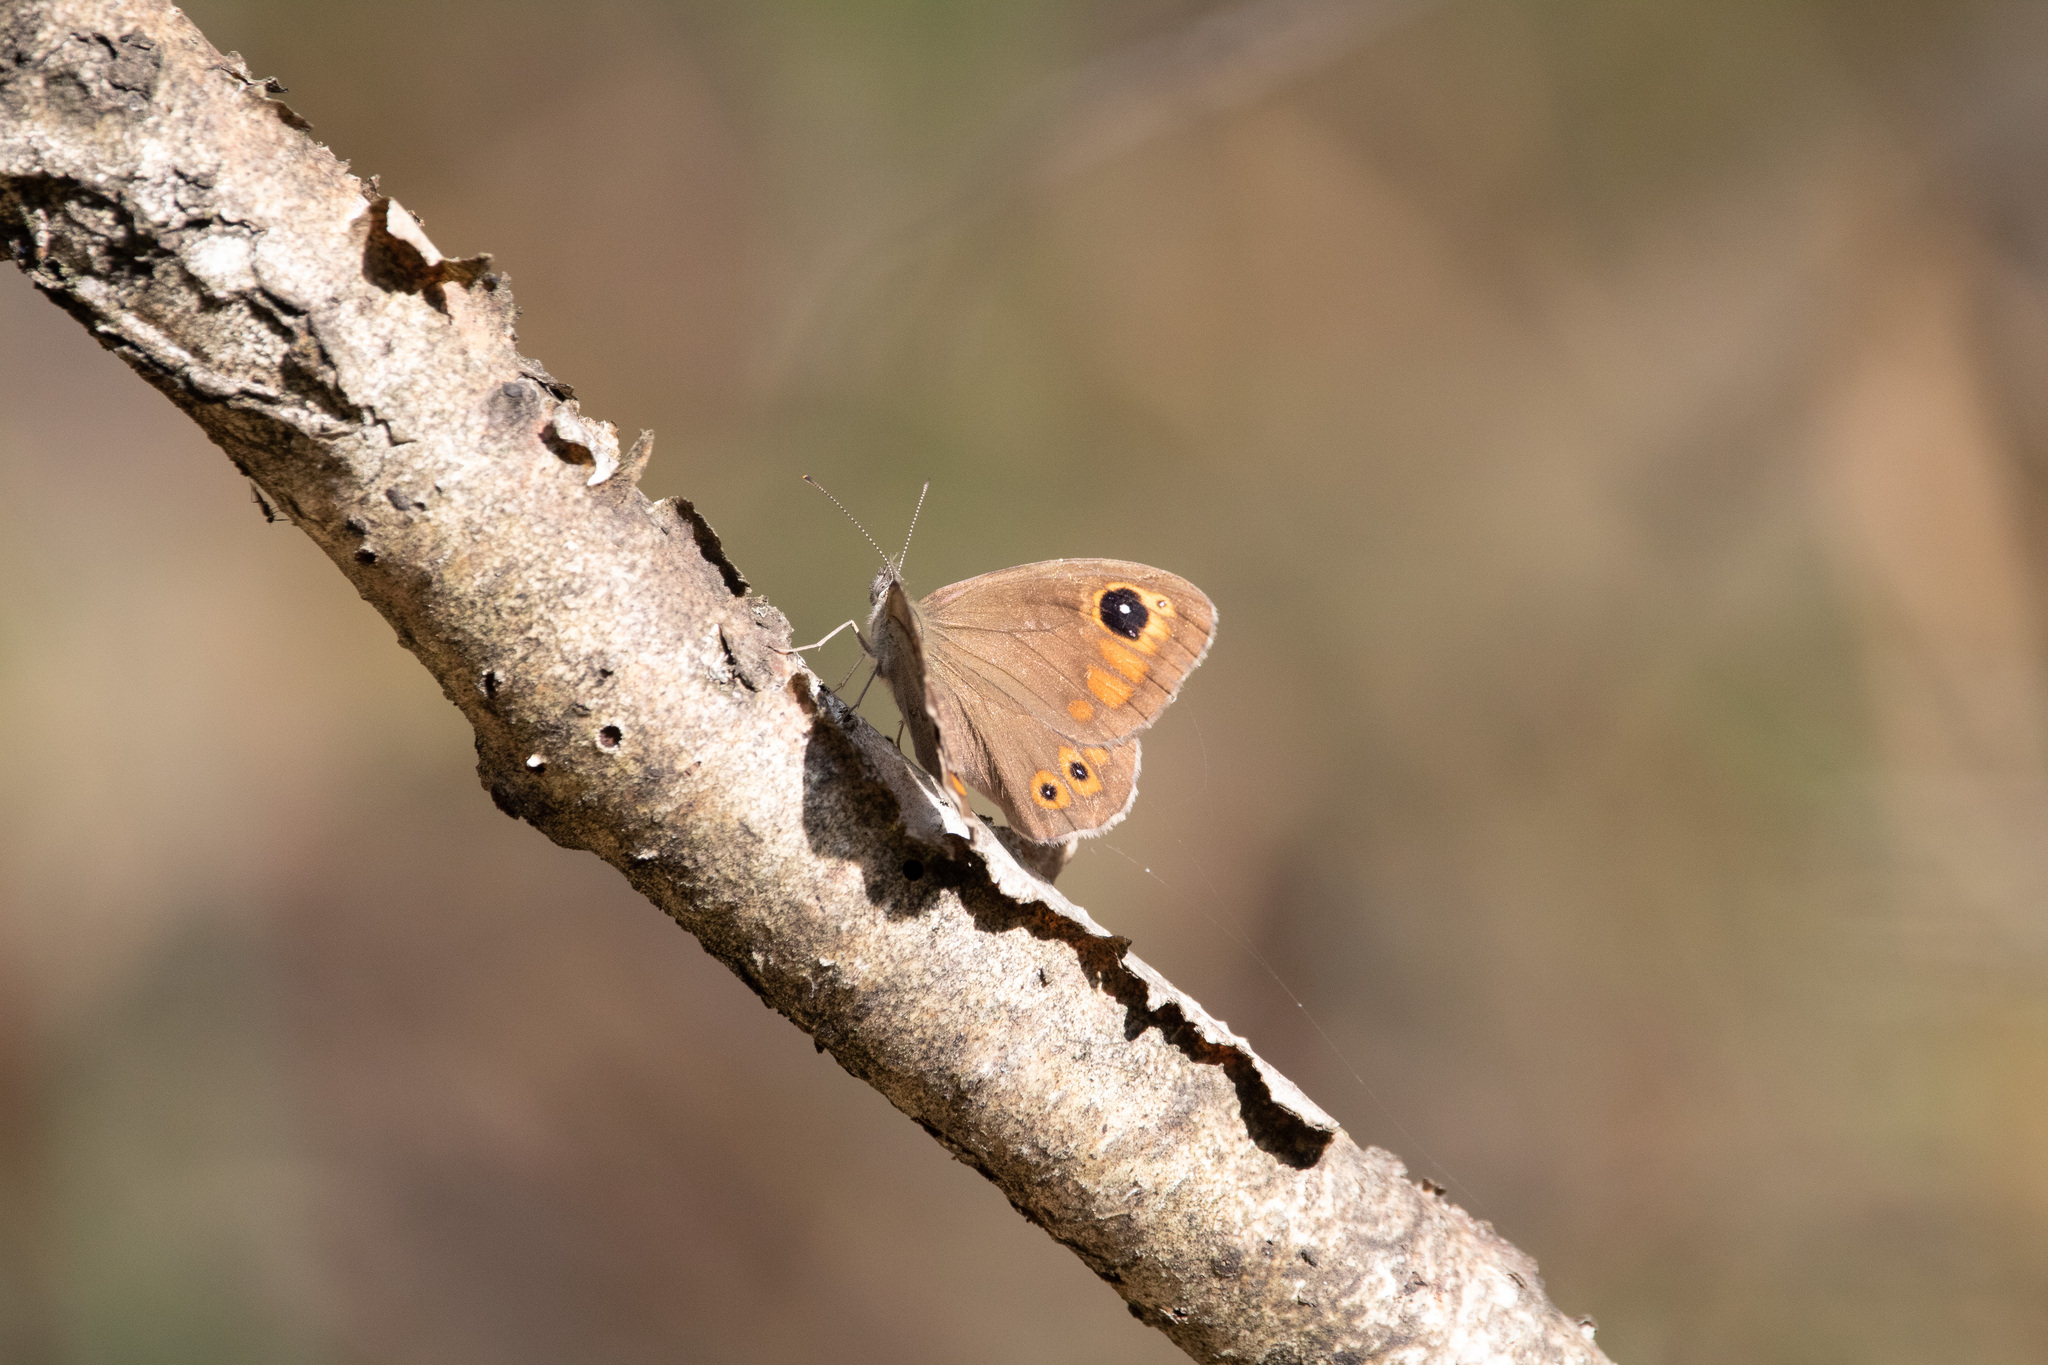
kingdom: Animalia
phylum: Arthropoda
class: Insecta
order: Lepidoptera
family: Nymphalidae
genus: Pararge
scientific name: Pararge Lasiommata maera
